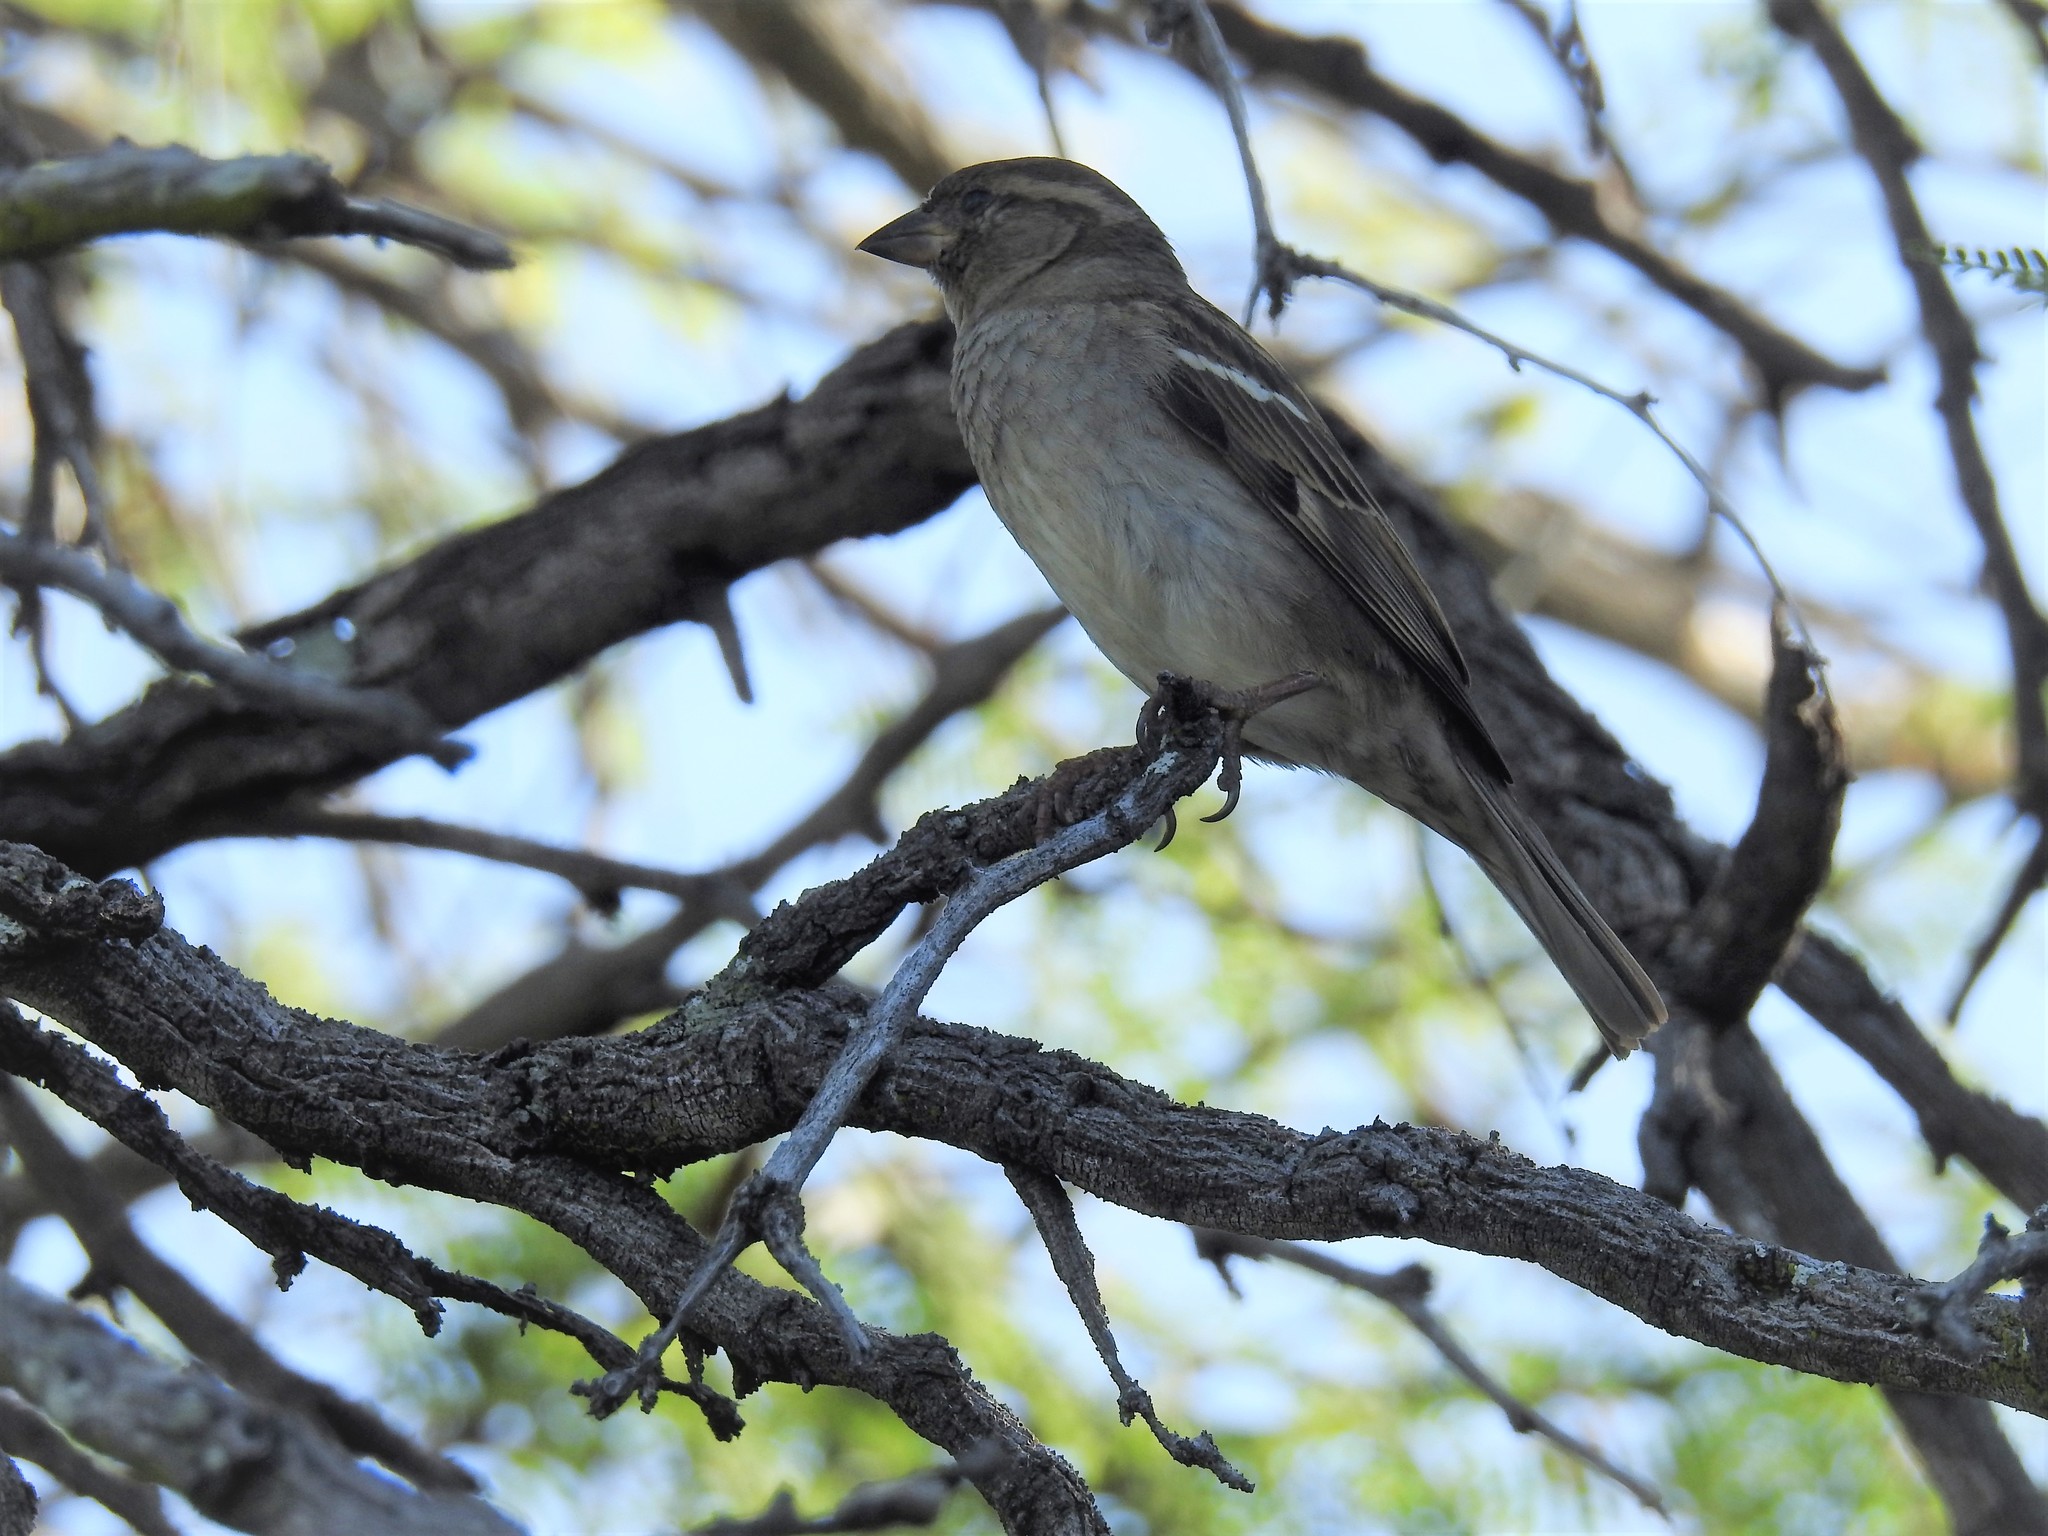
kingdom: Animalia
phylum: Chordata
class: Aves
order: Passeriformes
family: Passeridae
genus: Passer
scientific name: Passer domesticus
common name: House sparrow
